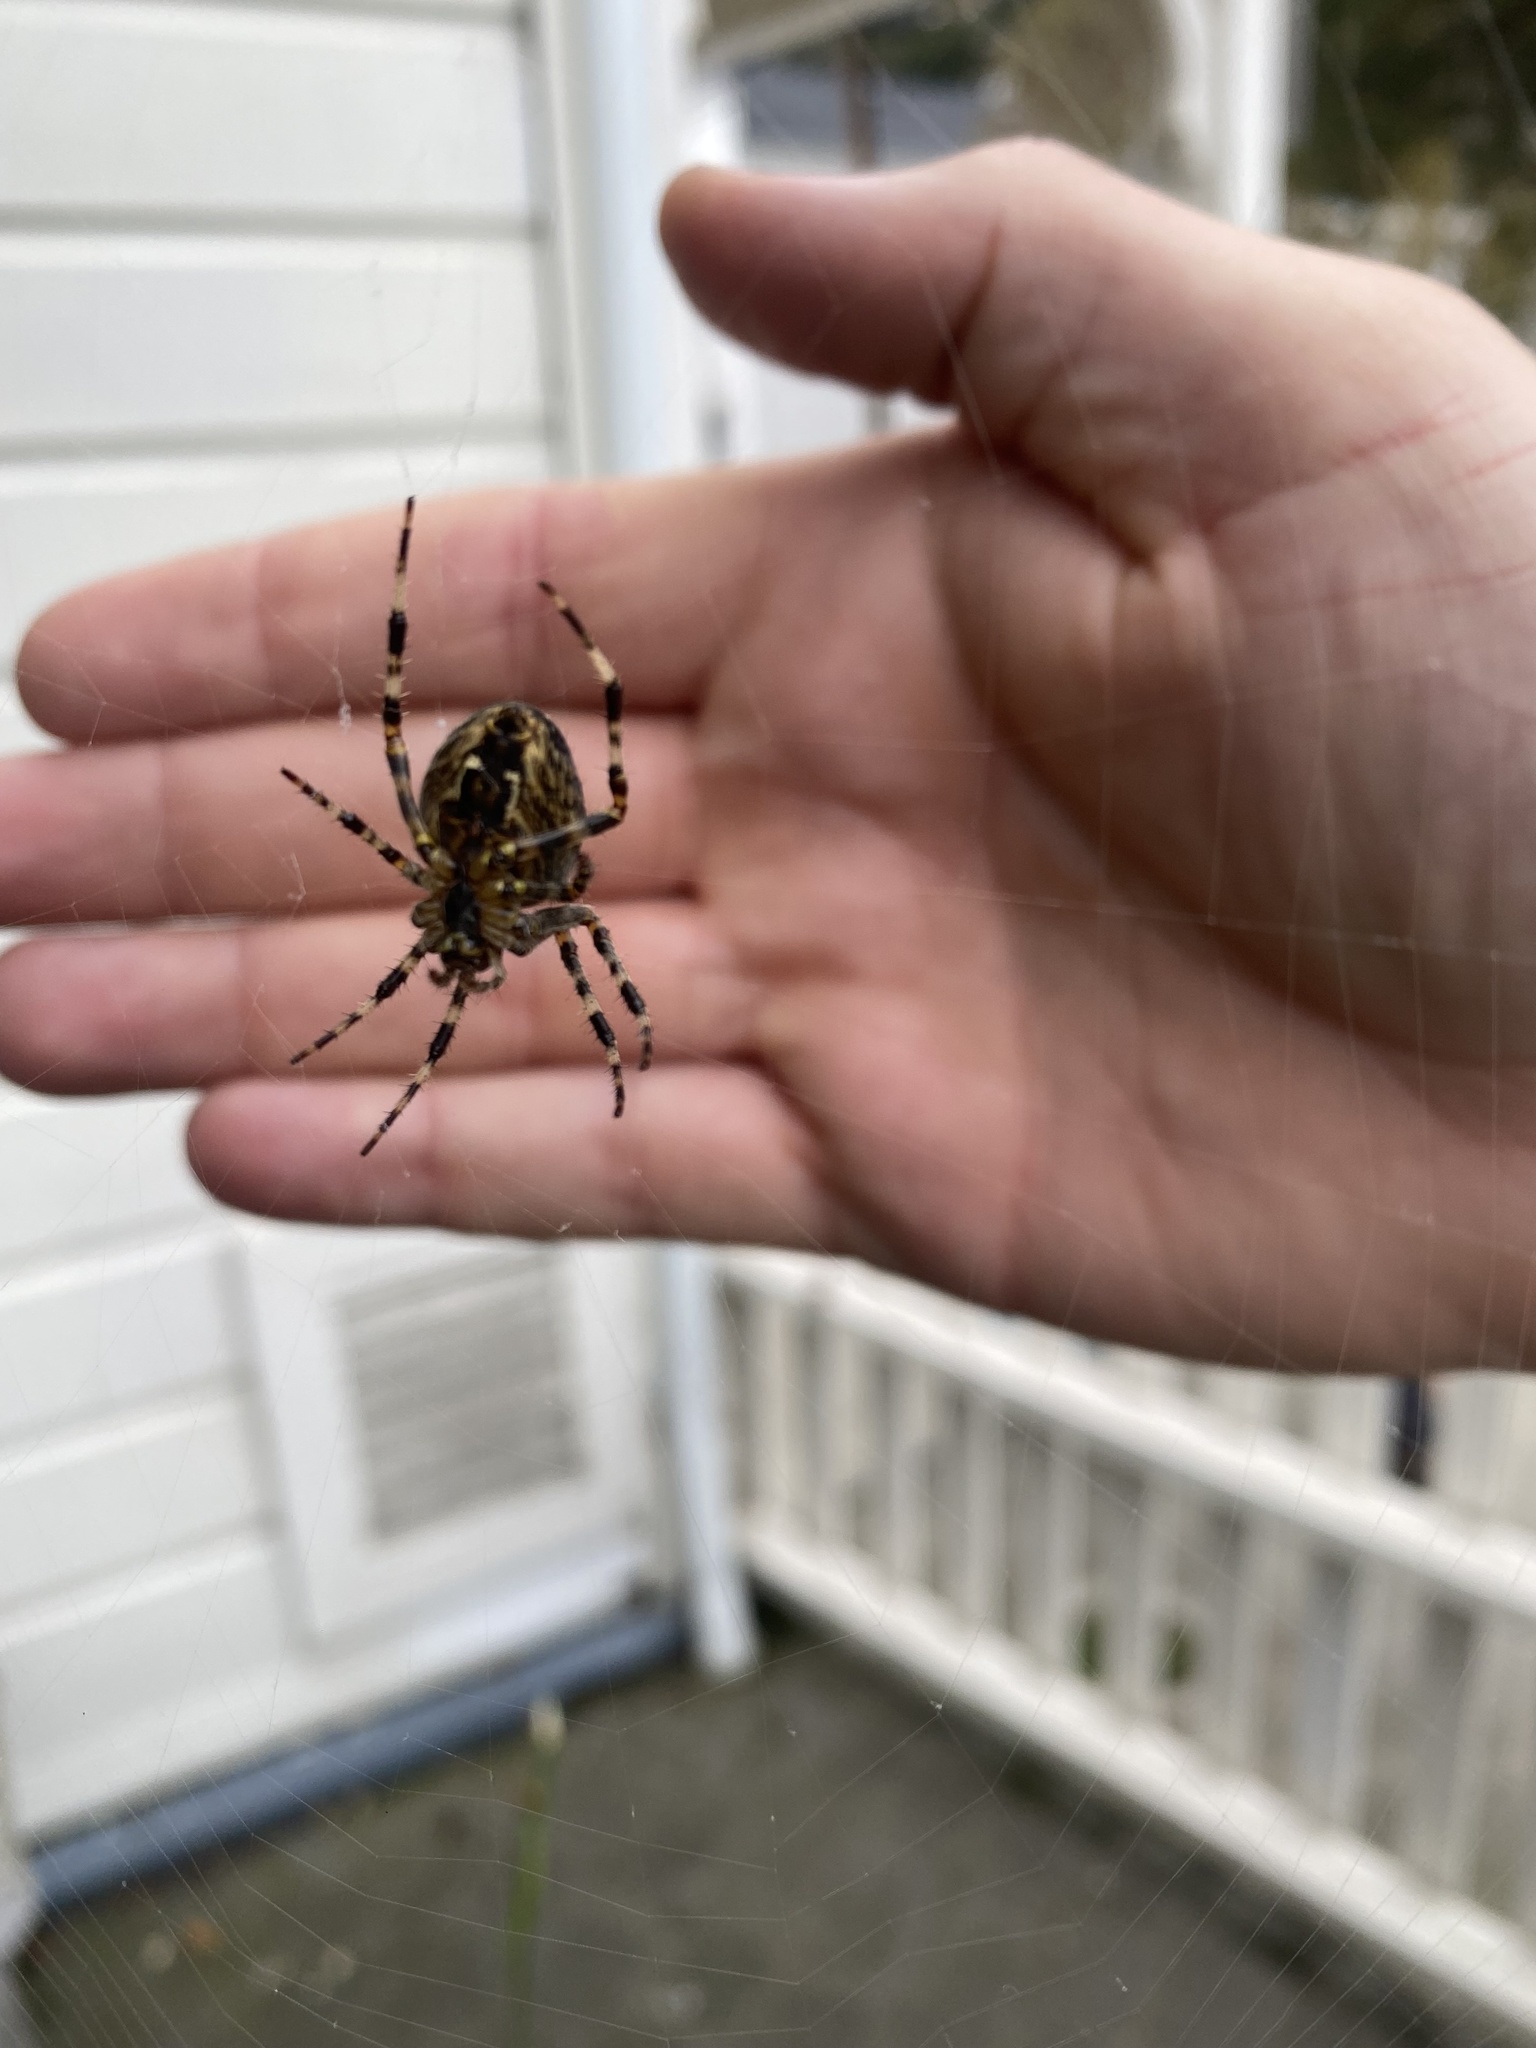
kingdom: Animalia
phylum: Arthropoda
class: Arachnida
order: Araneae
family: Araneidae
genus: Araneus
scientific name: Araneus diadematus
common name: Cross orbweaver
